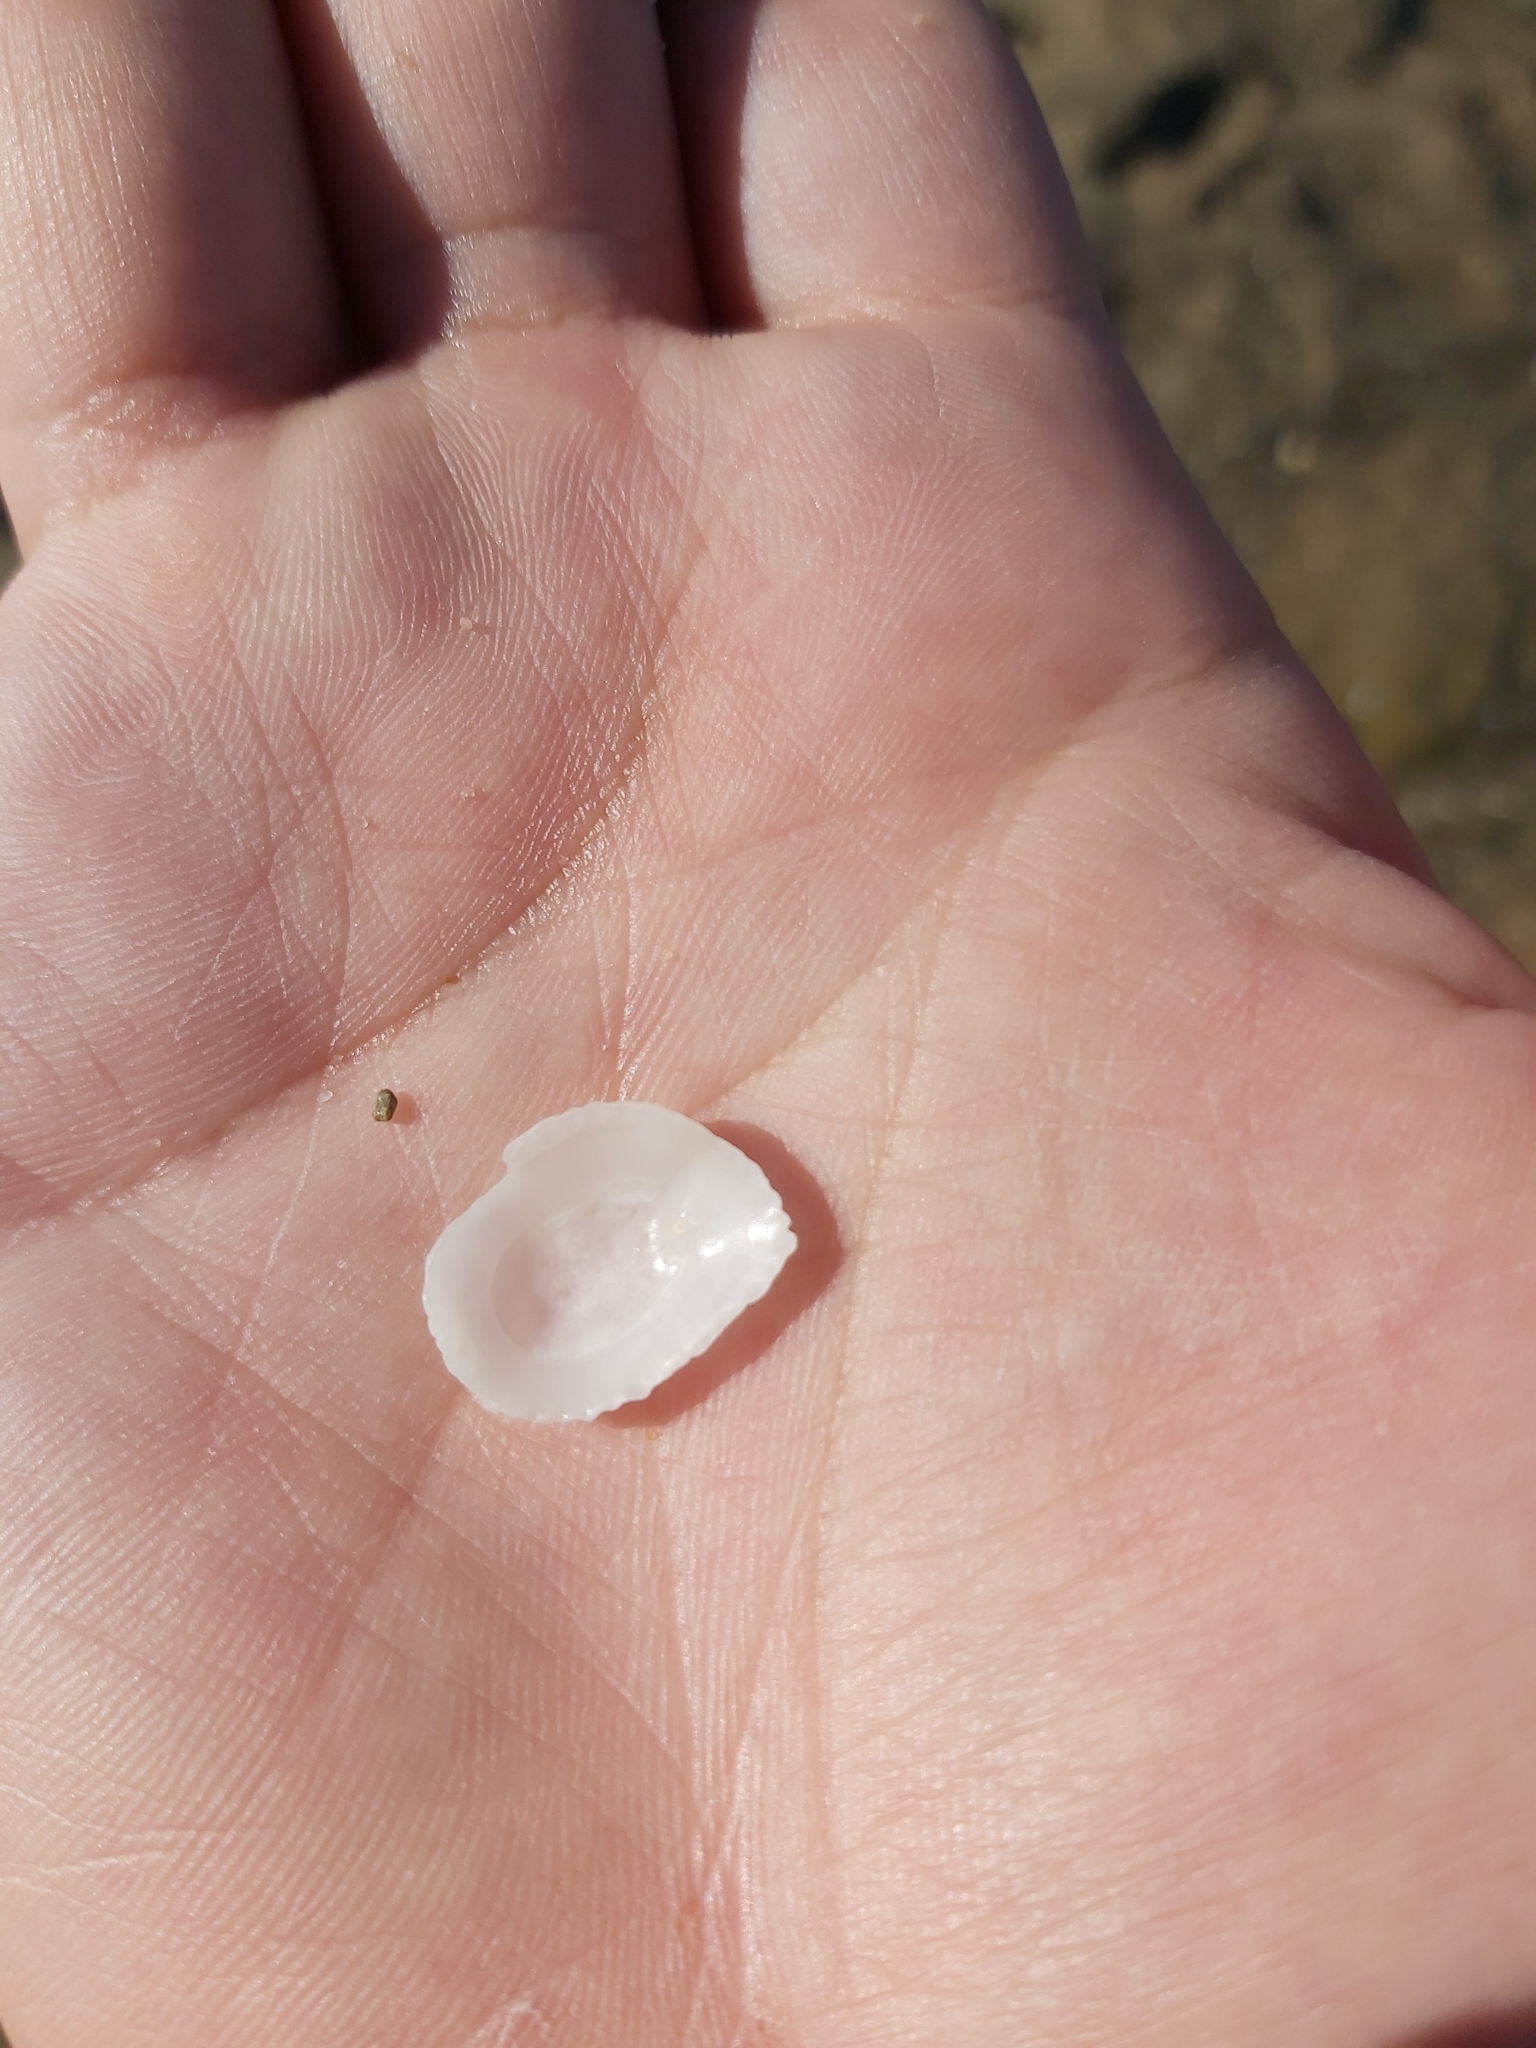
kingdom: Animalia
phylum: Mollusca
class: Gastropoda
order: Ellobiida
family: Trimusculidae
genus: Trimusculus
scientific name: Trimusculus conicus
